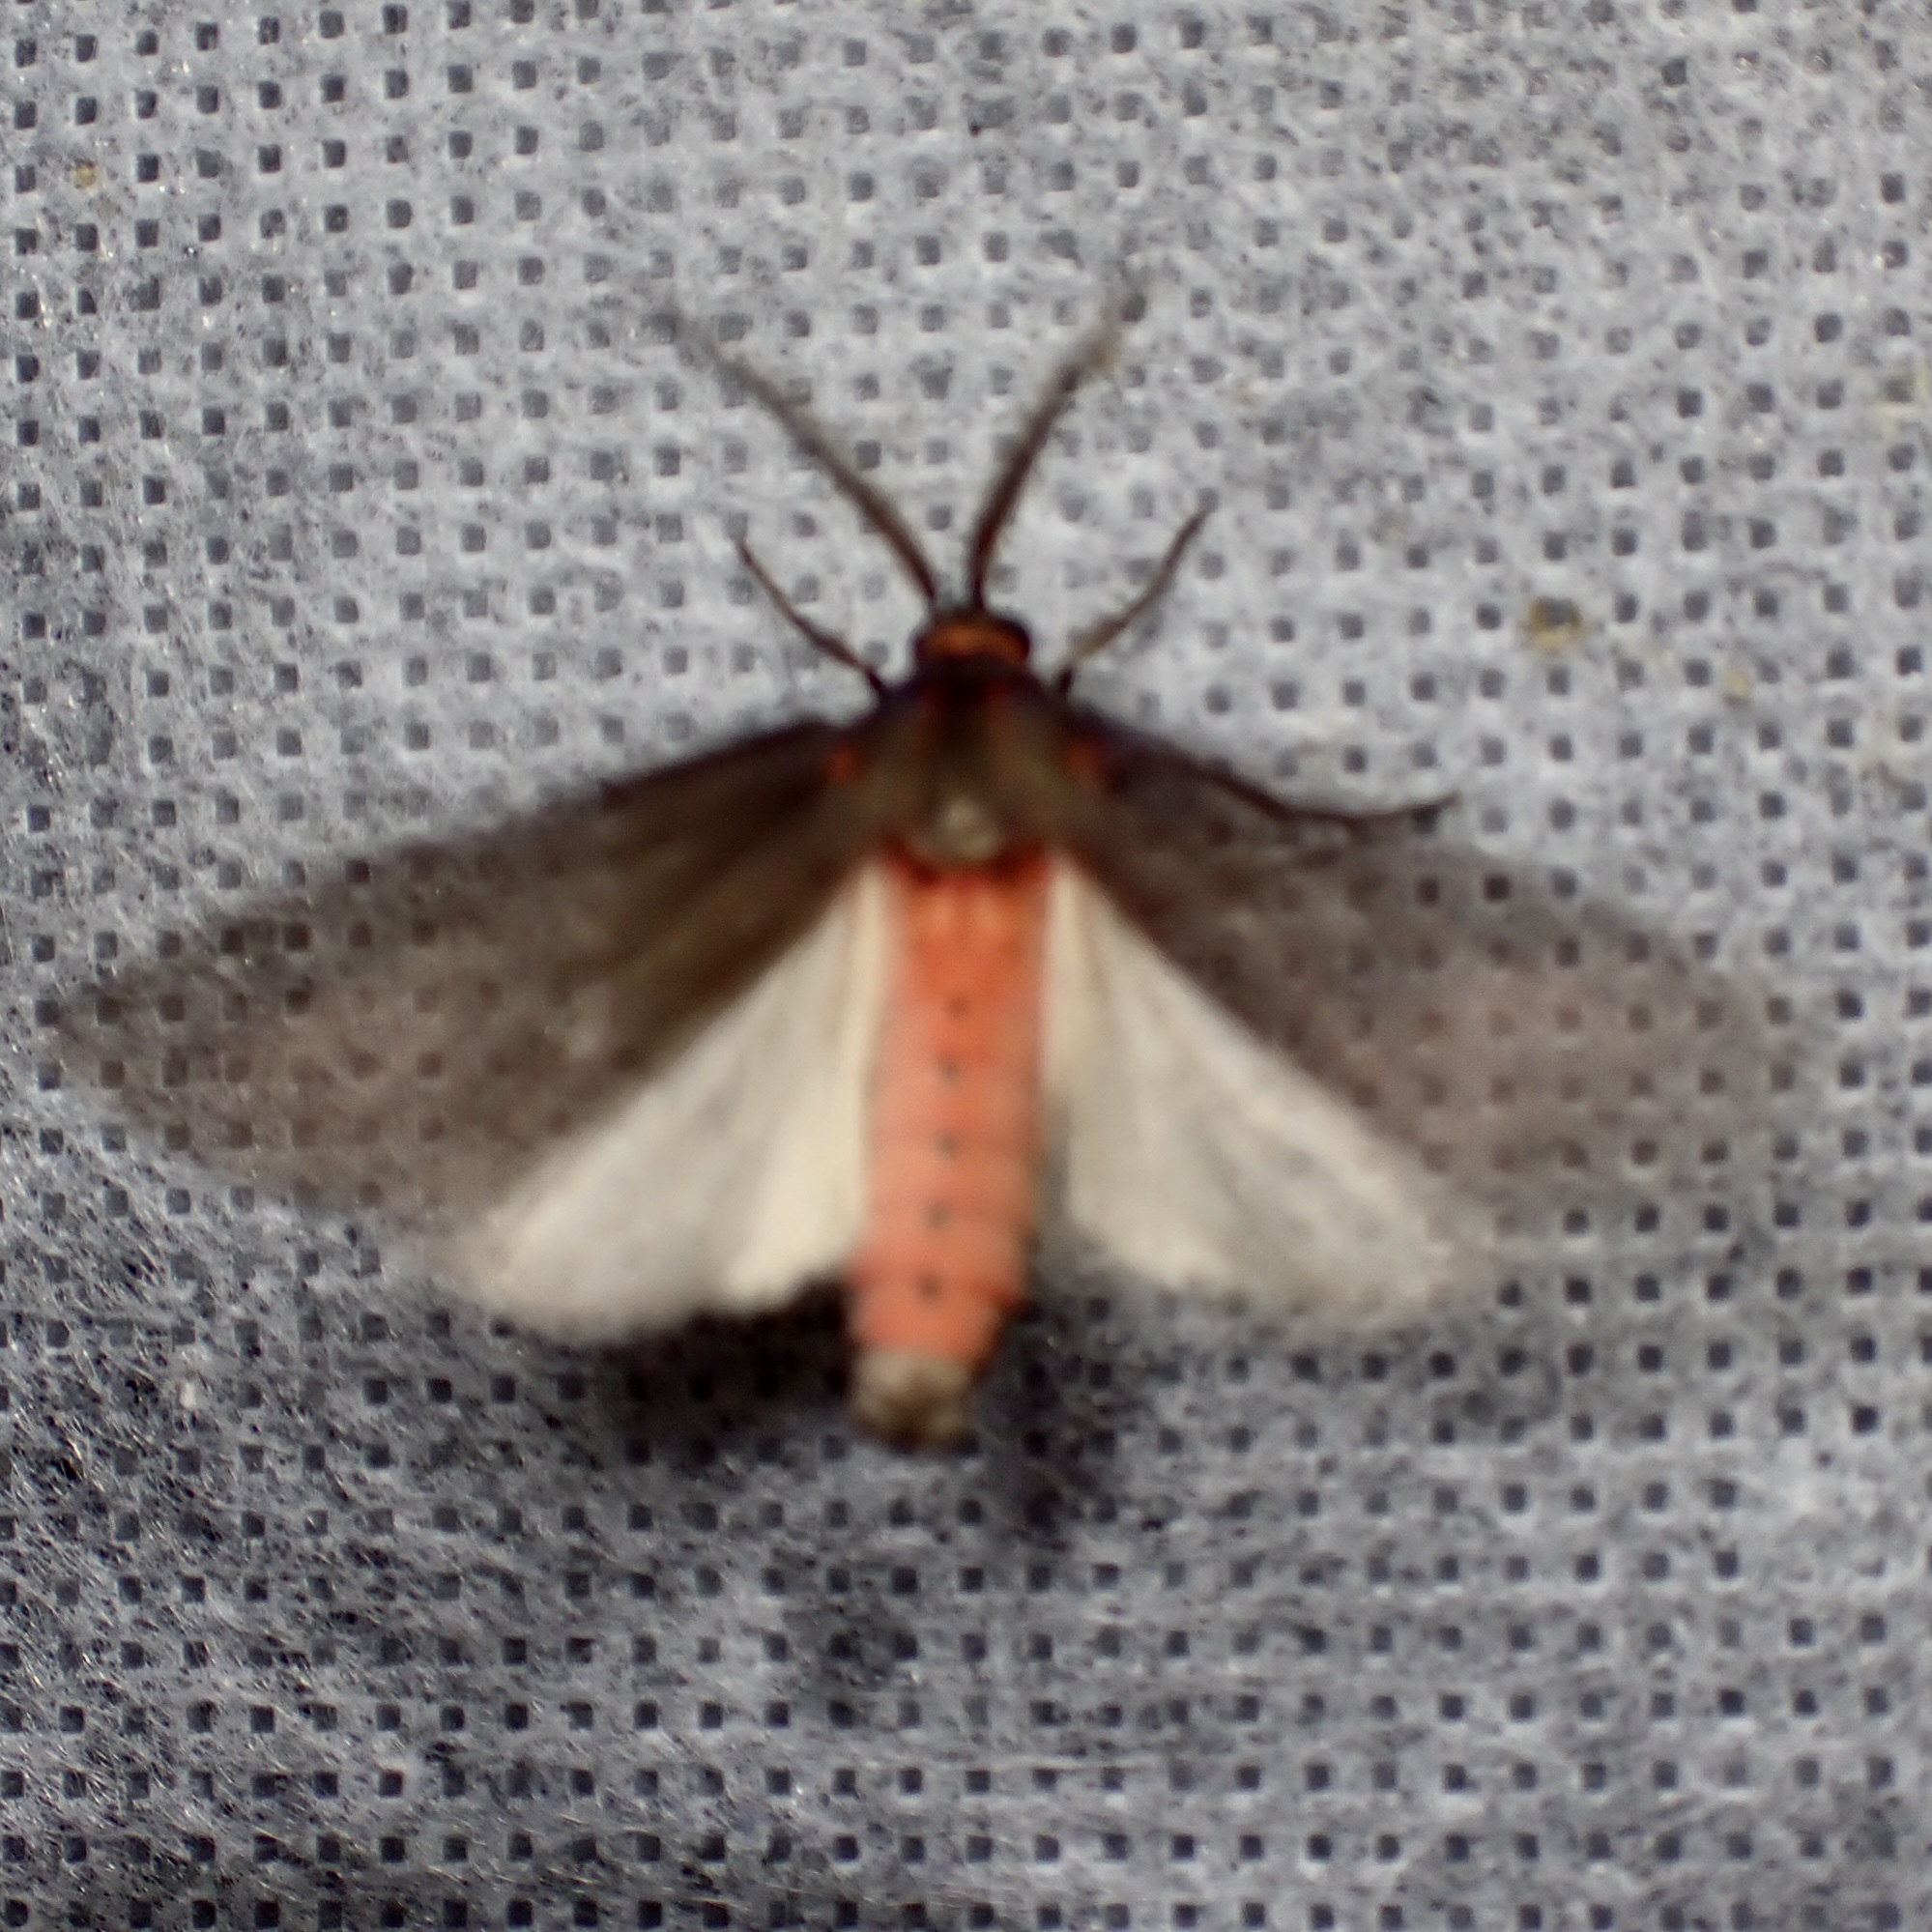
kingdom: Animalia
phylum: Arthropoda
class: Insecta
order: Lepidoptera
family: Erebidae
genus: Euchaetes
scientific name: Euchaetes fusca
